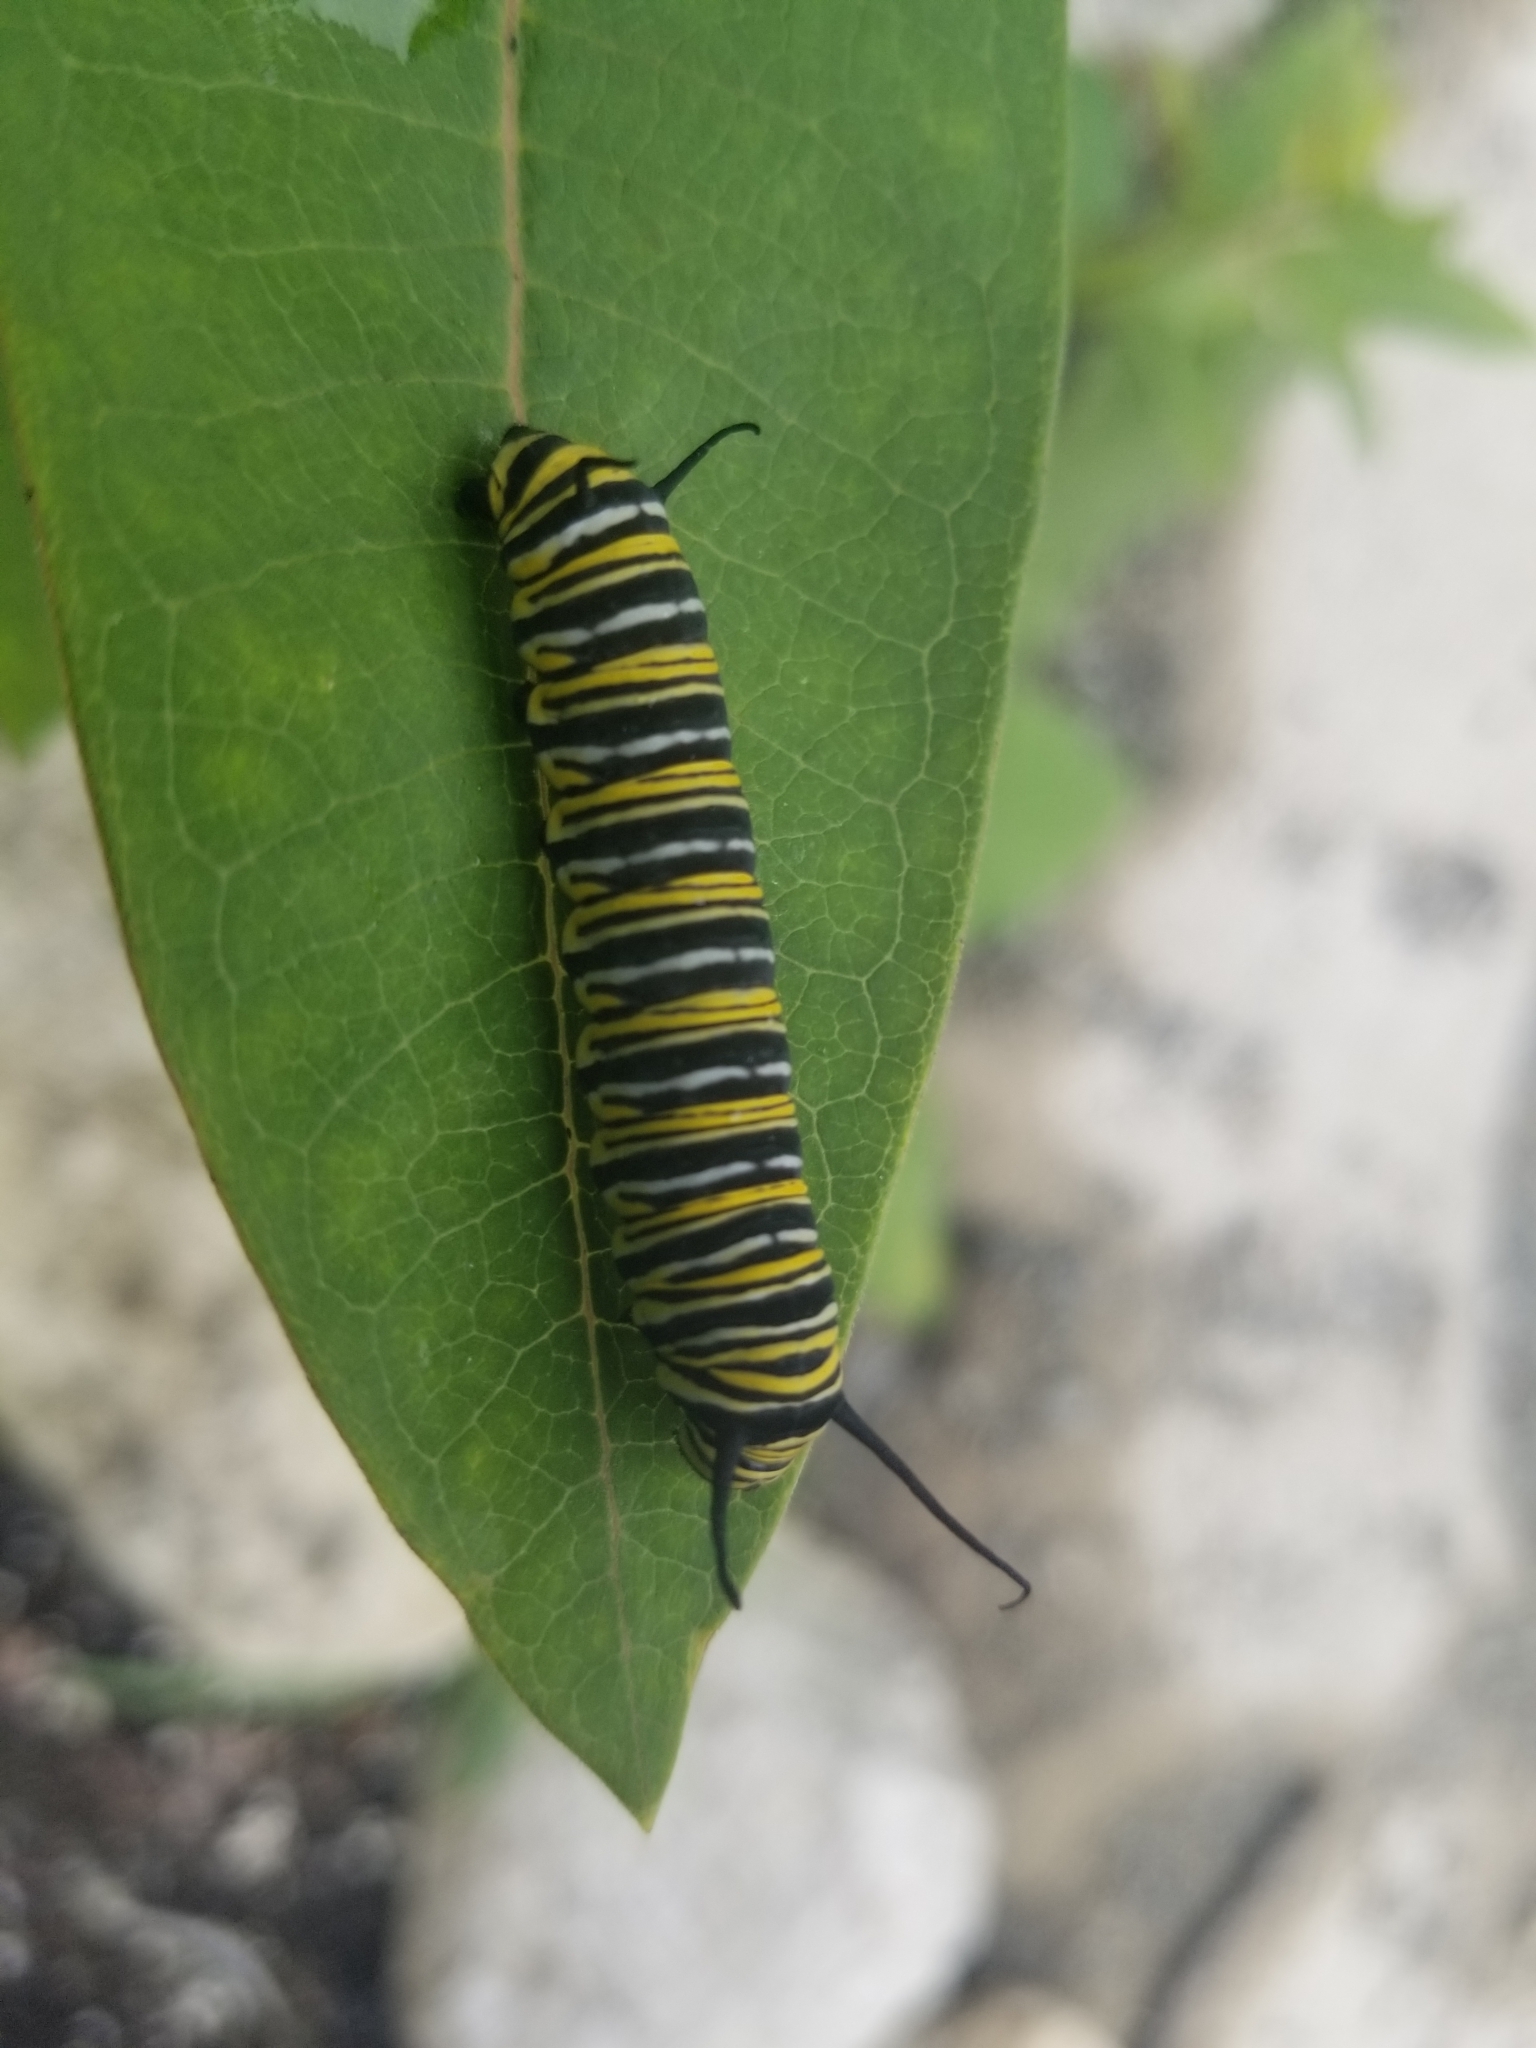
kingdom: Animalia
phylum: Arthropoda
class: Insecta
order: Lepidoptera
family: Nymphalidae
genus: Danaus
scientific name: Danaus plexippus
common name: Monarch
